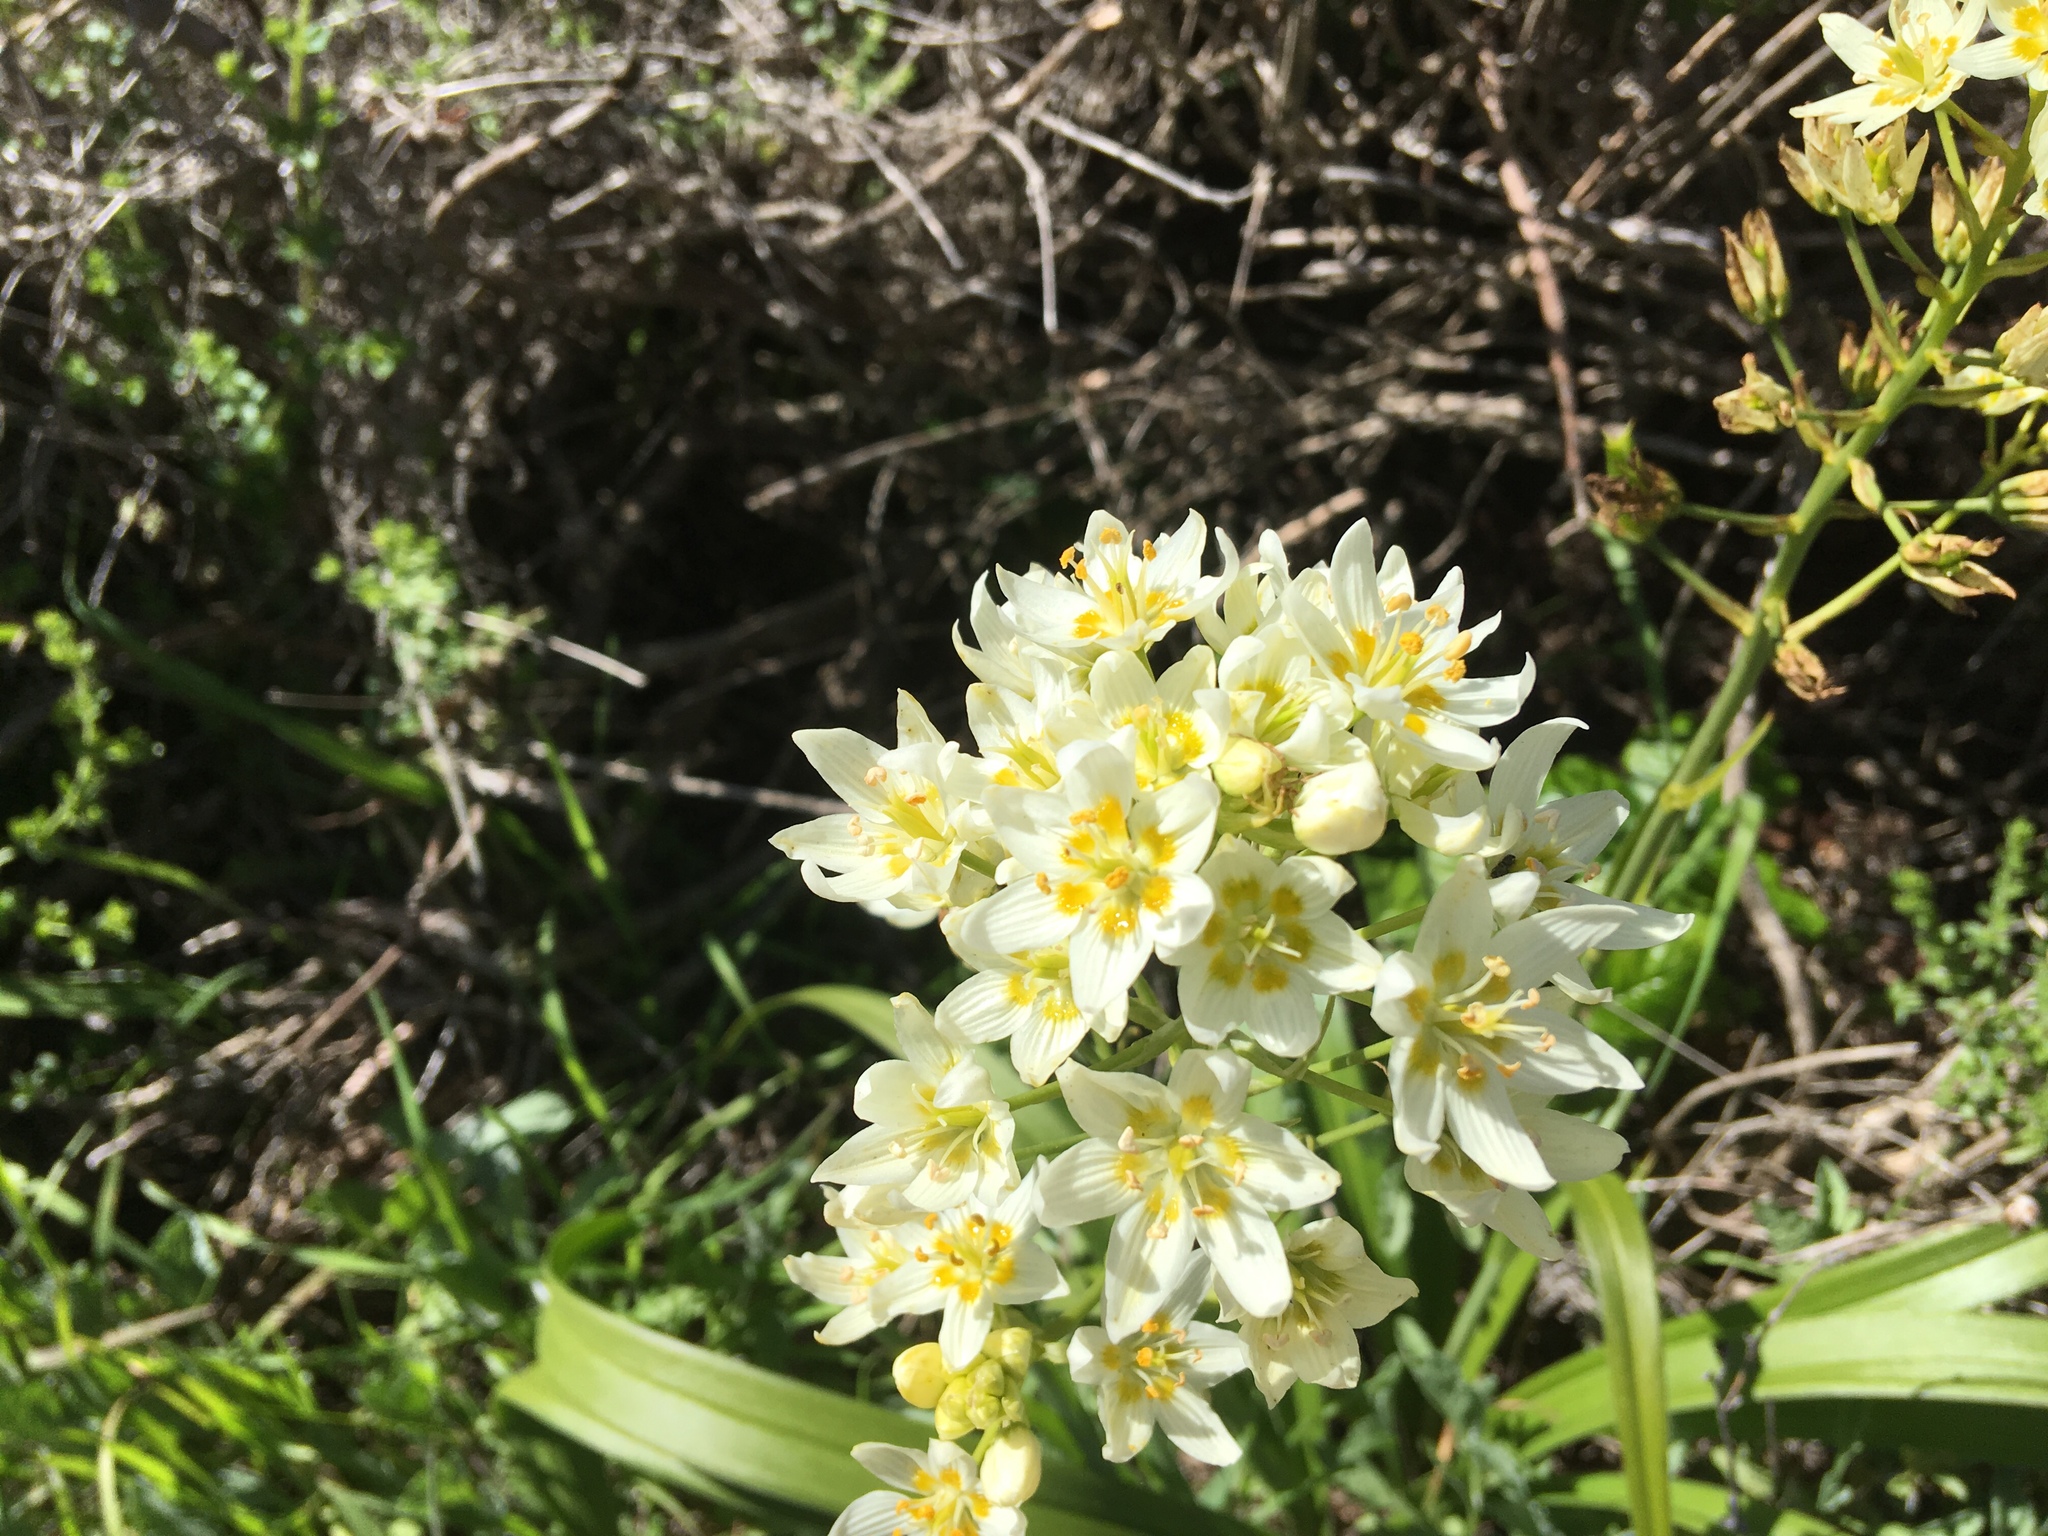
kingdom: Plantae
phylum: Tracheophyta
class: Liliopsida
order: Liliales
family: Melanthiaceae
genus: Toxicoscordion
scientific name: Toxicoscordion fremontii
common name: Fremont's death camas
